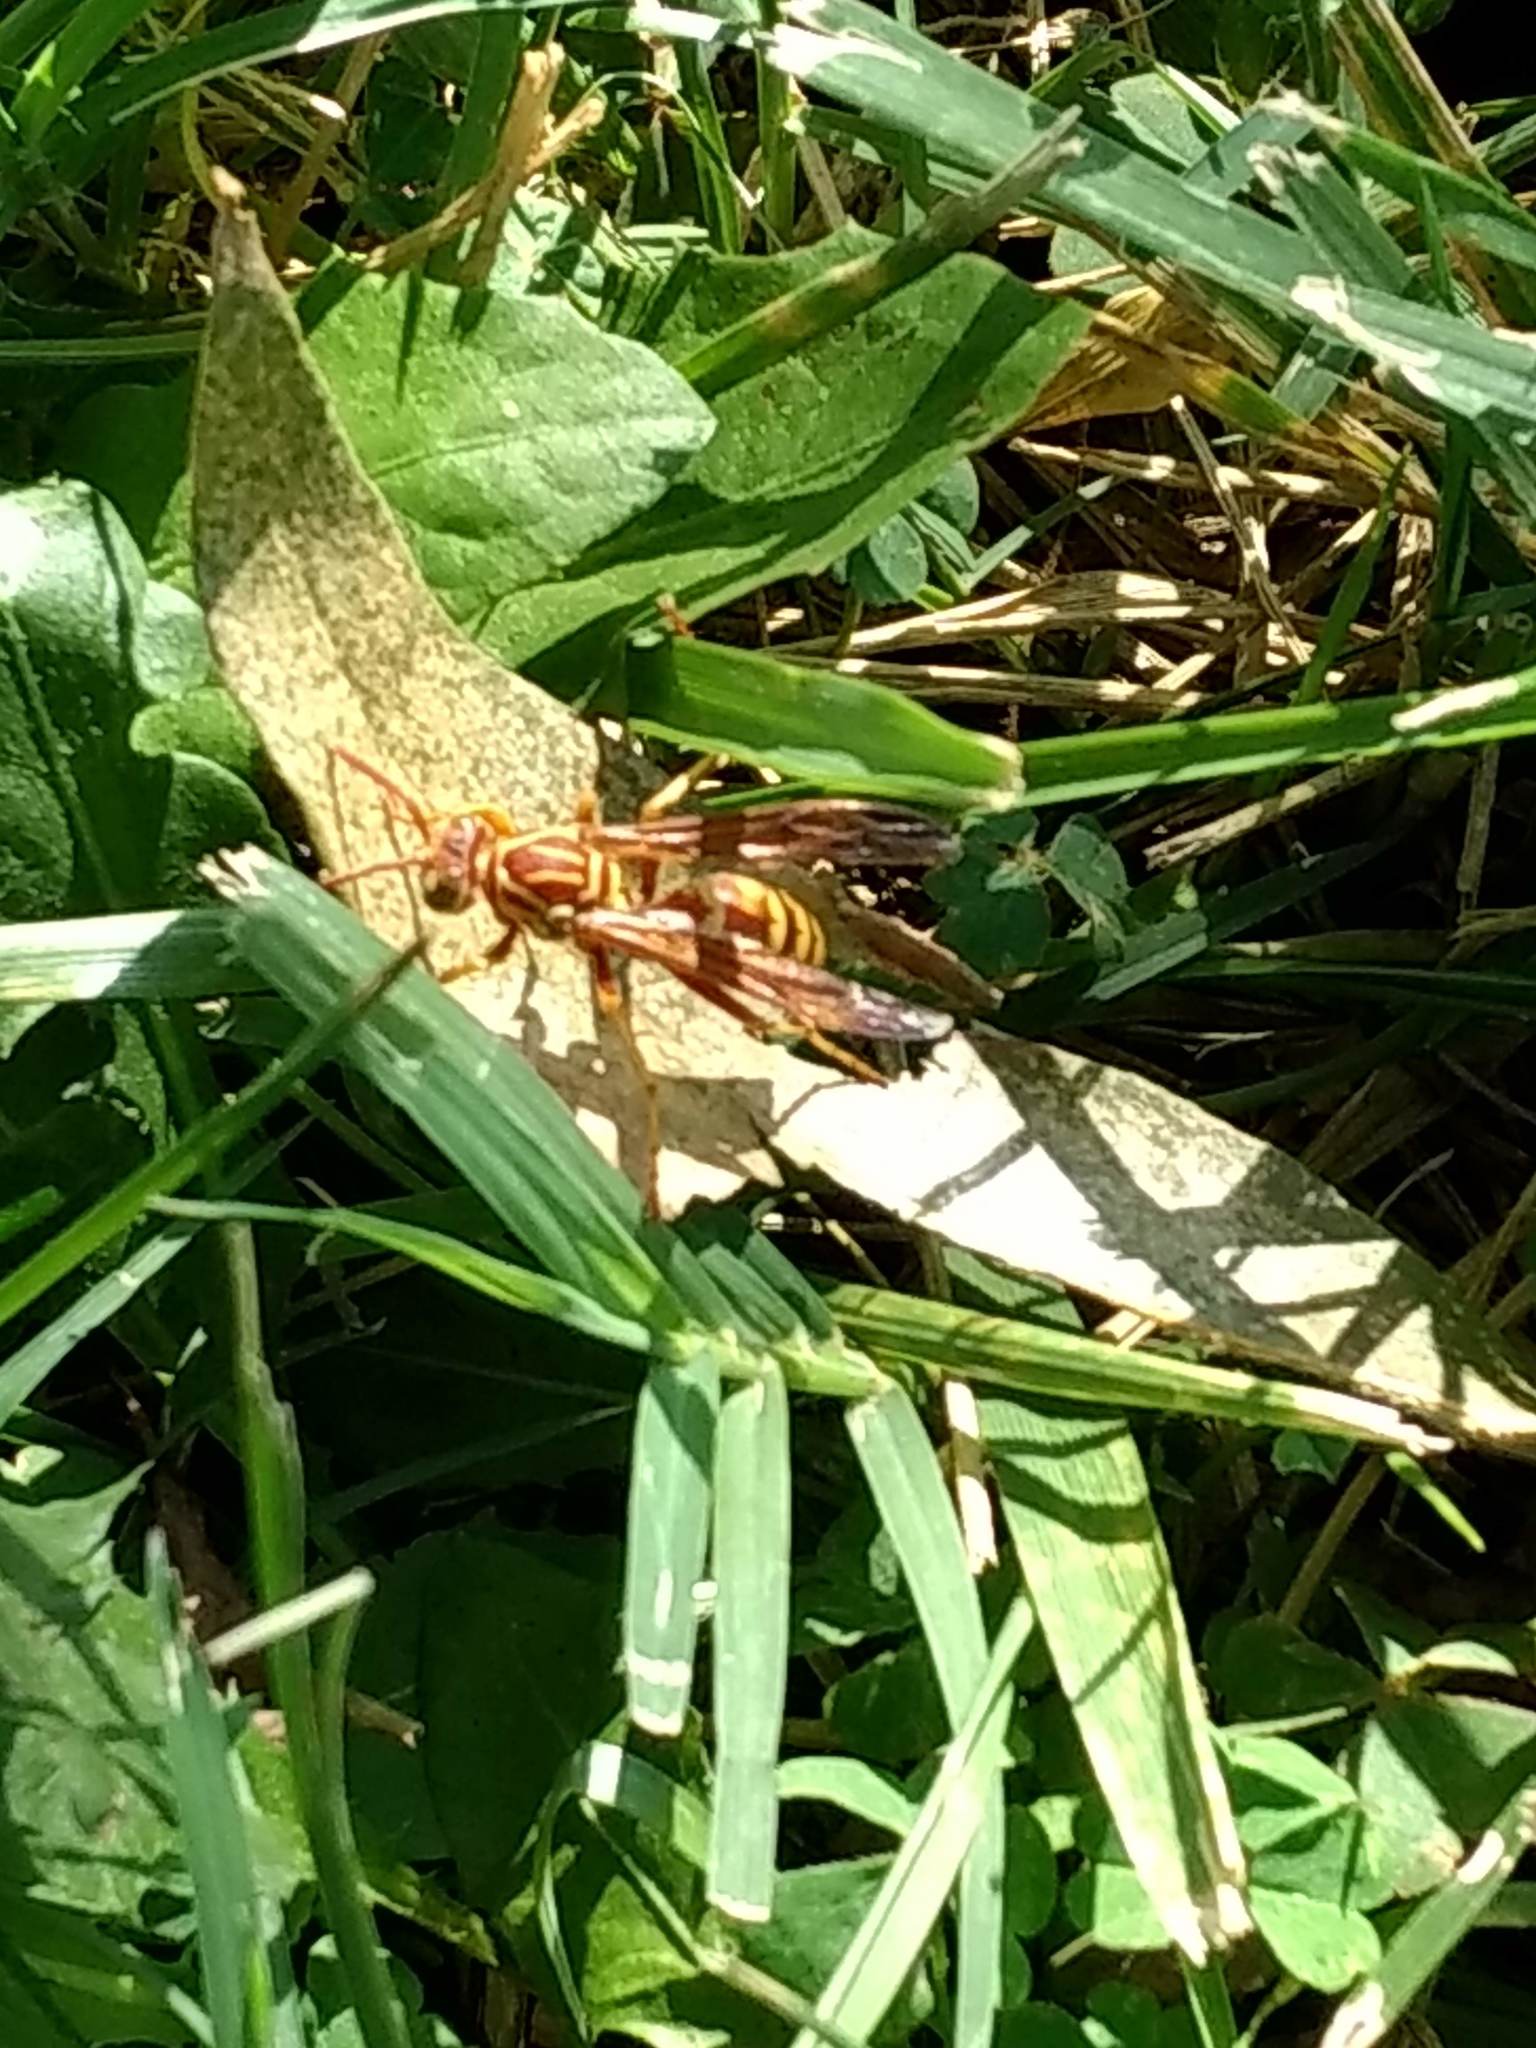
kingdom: Animalia
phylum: Arthropoda
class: Insecta
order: Hymenoptera
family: Eumenidae
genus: Polistes
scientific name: Polistes apachus
